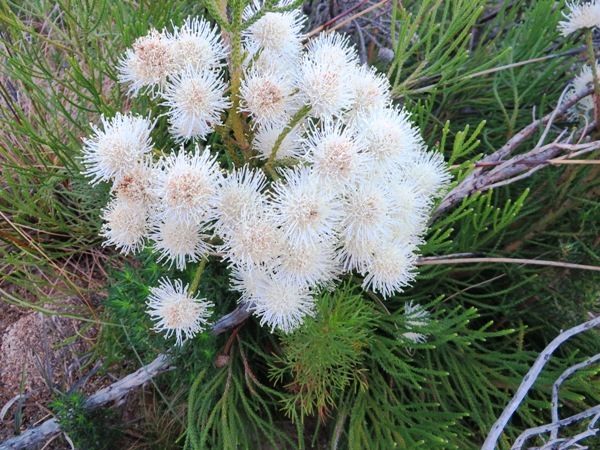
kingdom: Plantae
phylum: Tracheophyta
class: Magnoliopsida
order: Bruniales
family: Bruniaceae
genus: Brunia
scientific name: Brunia noduliflora
